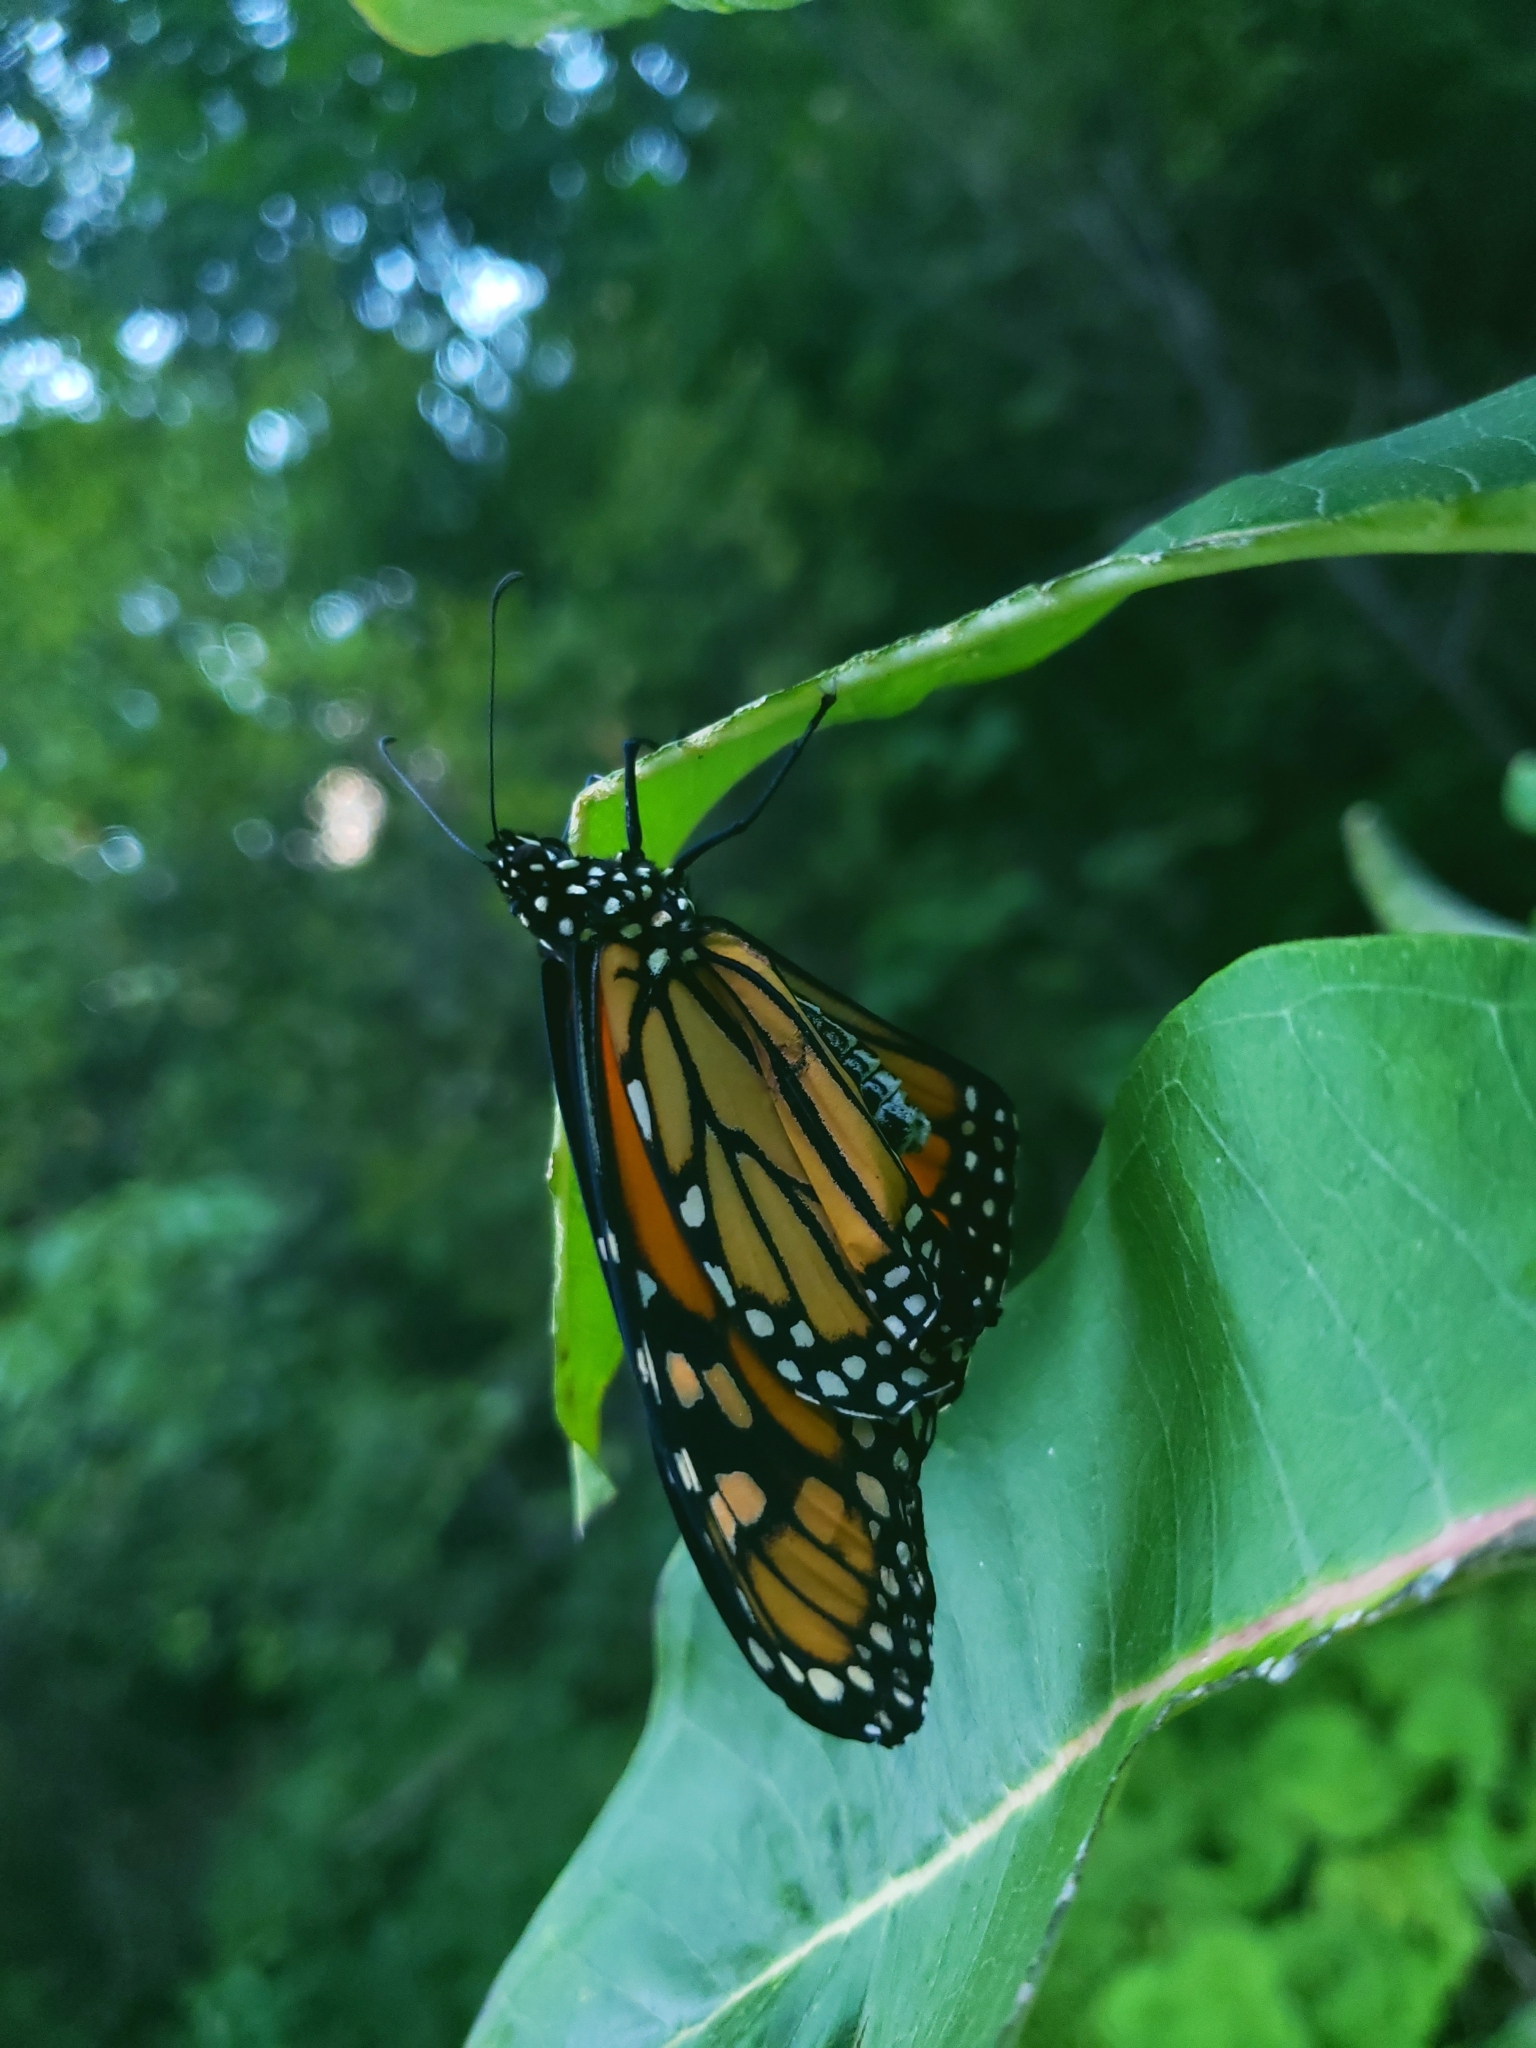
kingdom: Animalia
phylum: Arthropoda
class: Insecta
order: Lepidoptera
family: Nymphalidae
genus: Danaus
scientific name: Danaus plexippus
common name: Monarch
